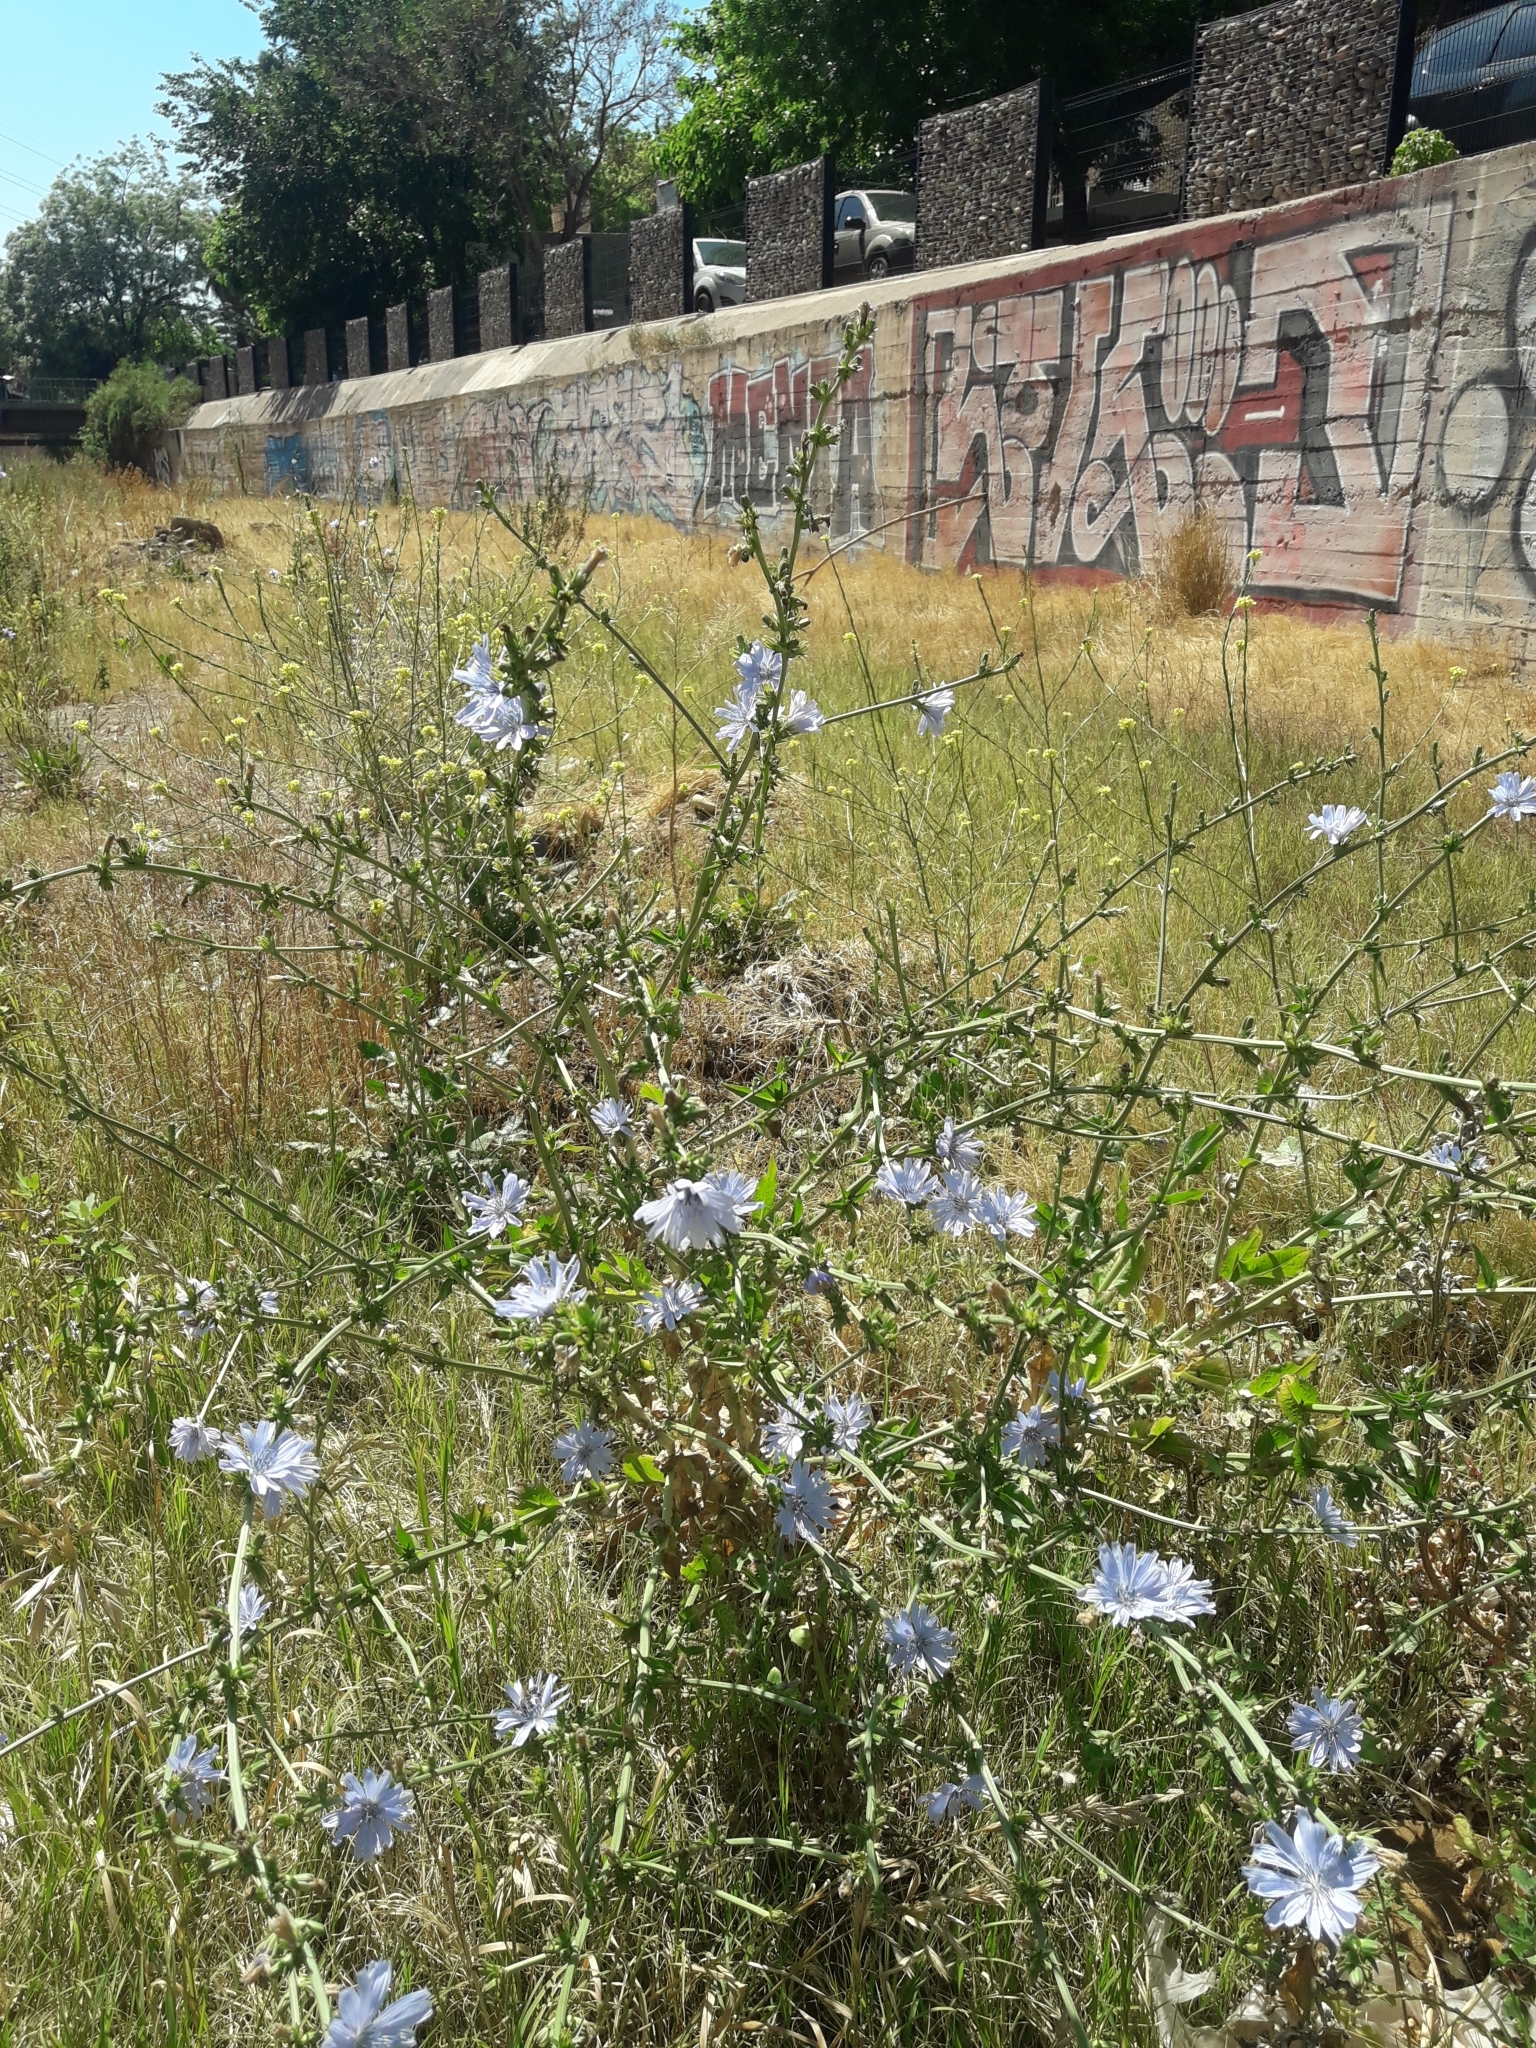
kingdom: Plantae
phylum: Tracheophyta
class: Magnoliopsida
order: Asterales
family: Asteraceae
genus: Cichorium
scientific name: Cichorium intybus
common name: Chicory
